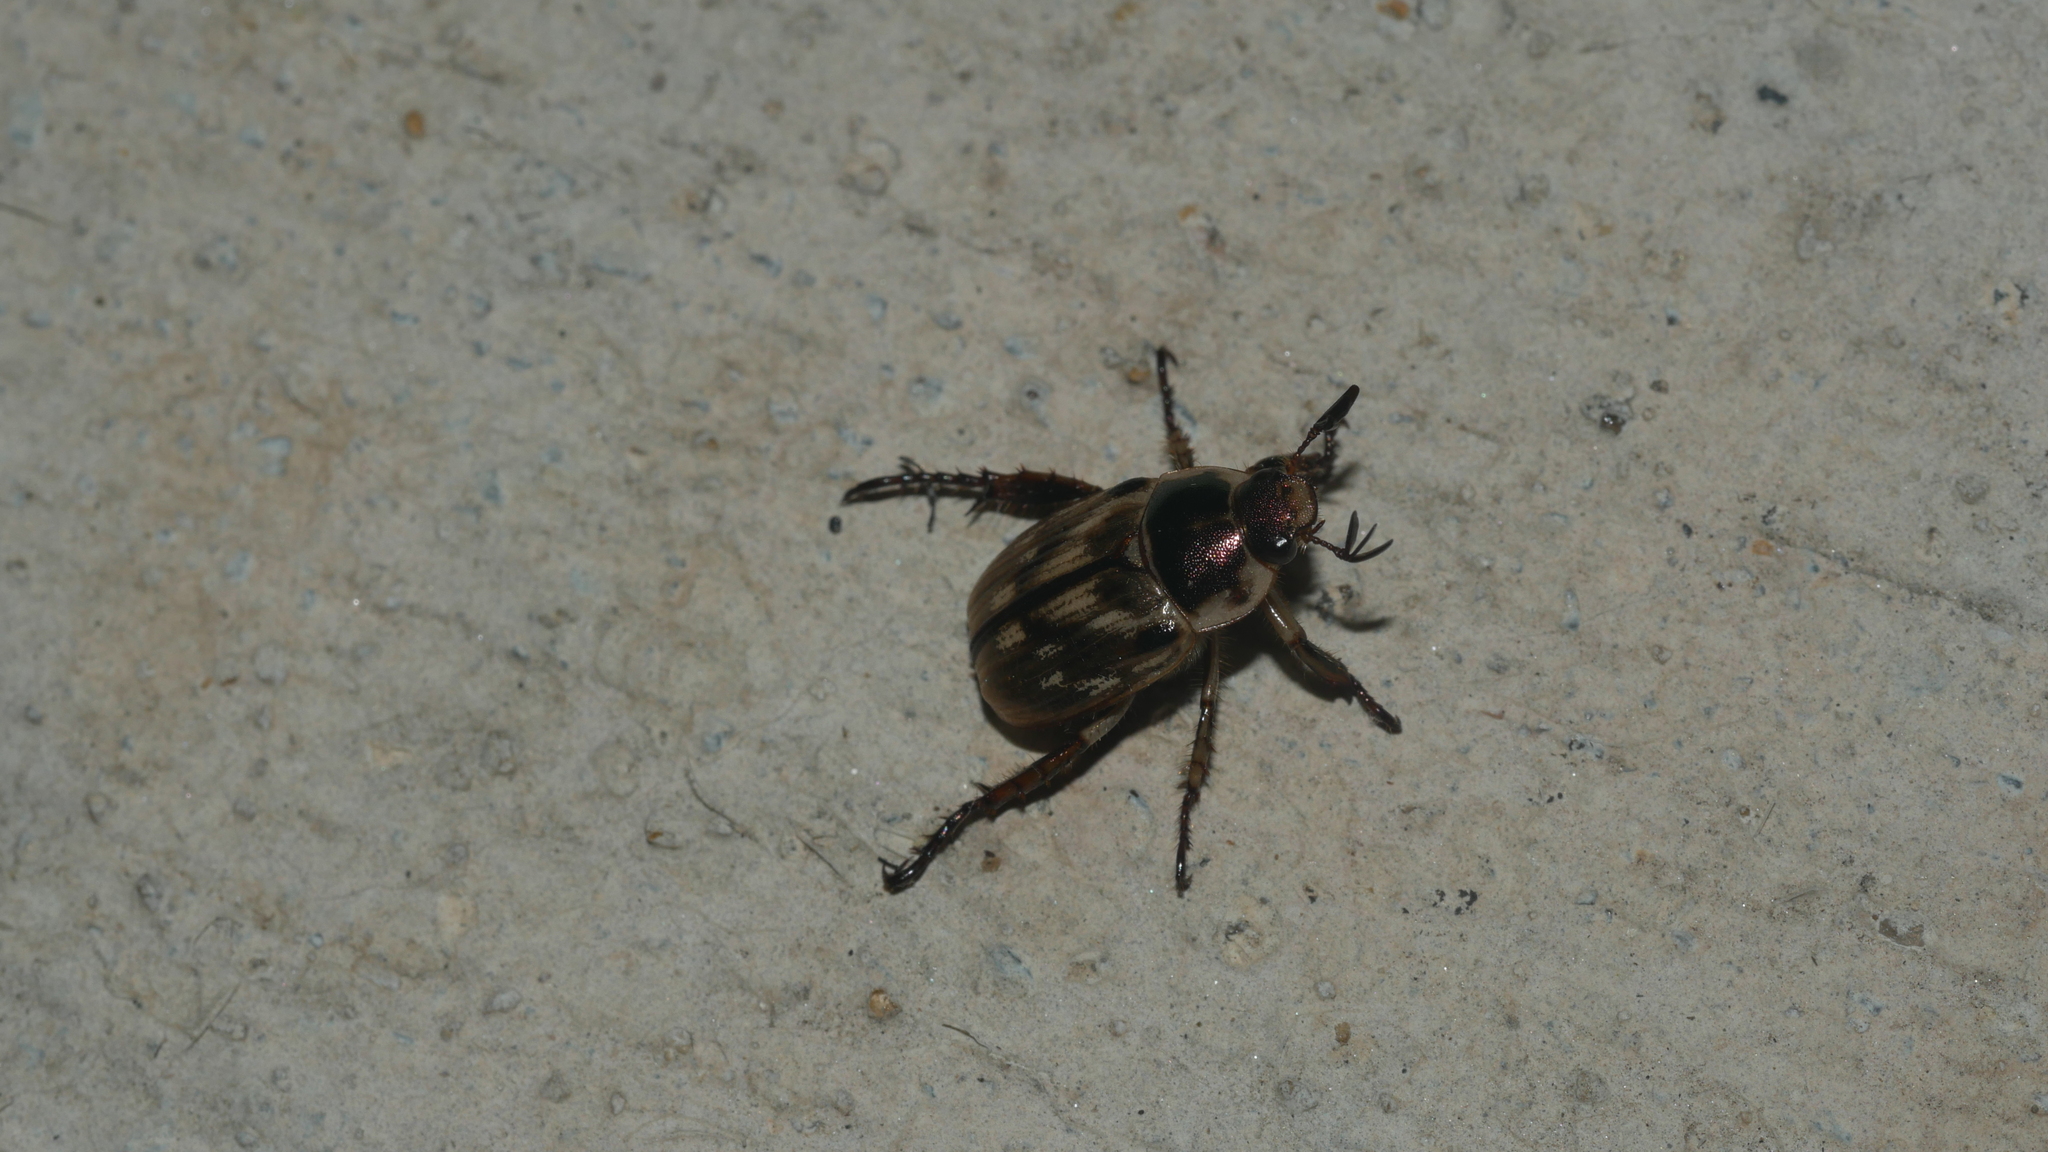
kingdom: Animalia
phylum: Arthropoda
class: Insecta
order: Coleoptera
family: Scarabaeidae
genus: Exomala
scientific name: Exomala orientalis
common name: Oriental beetle
